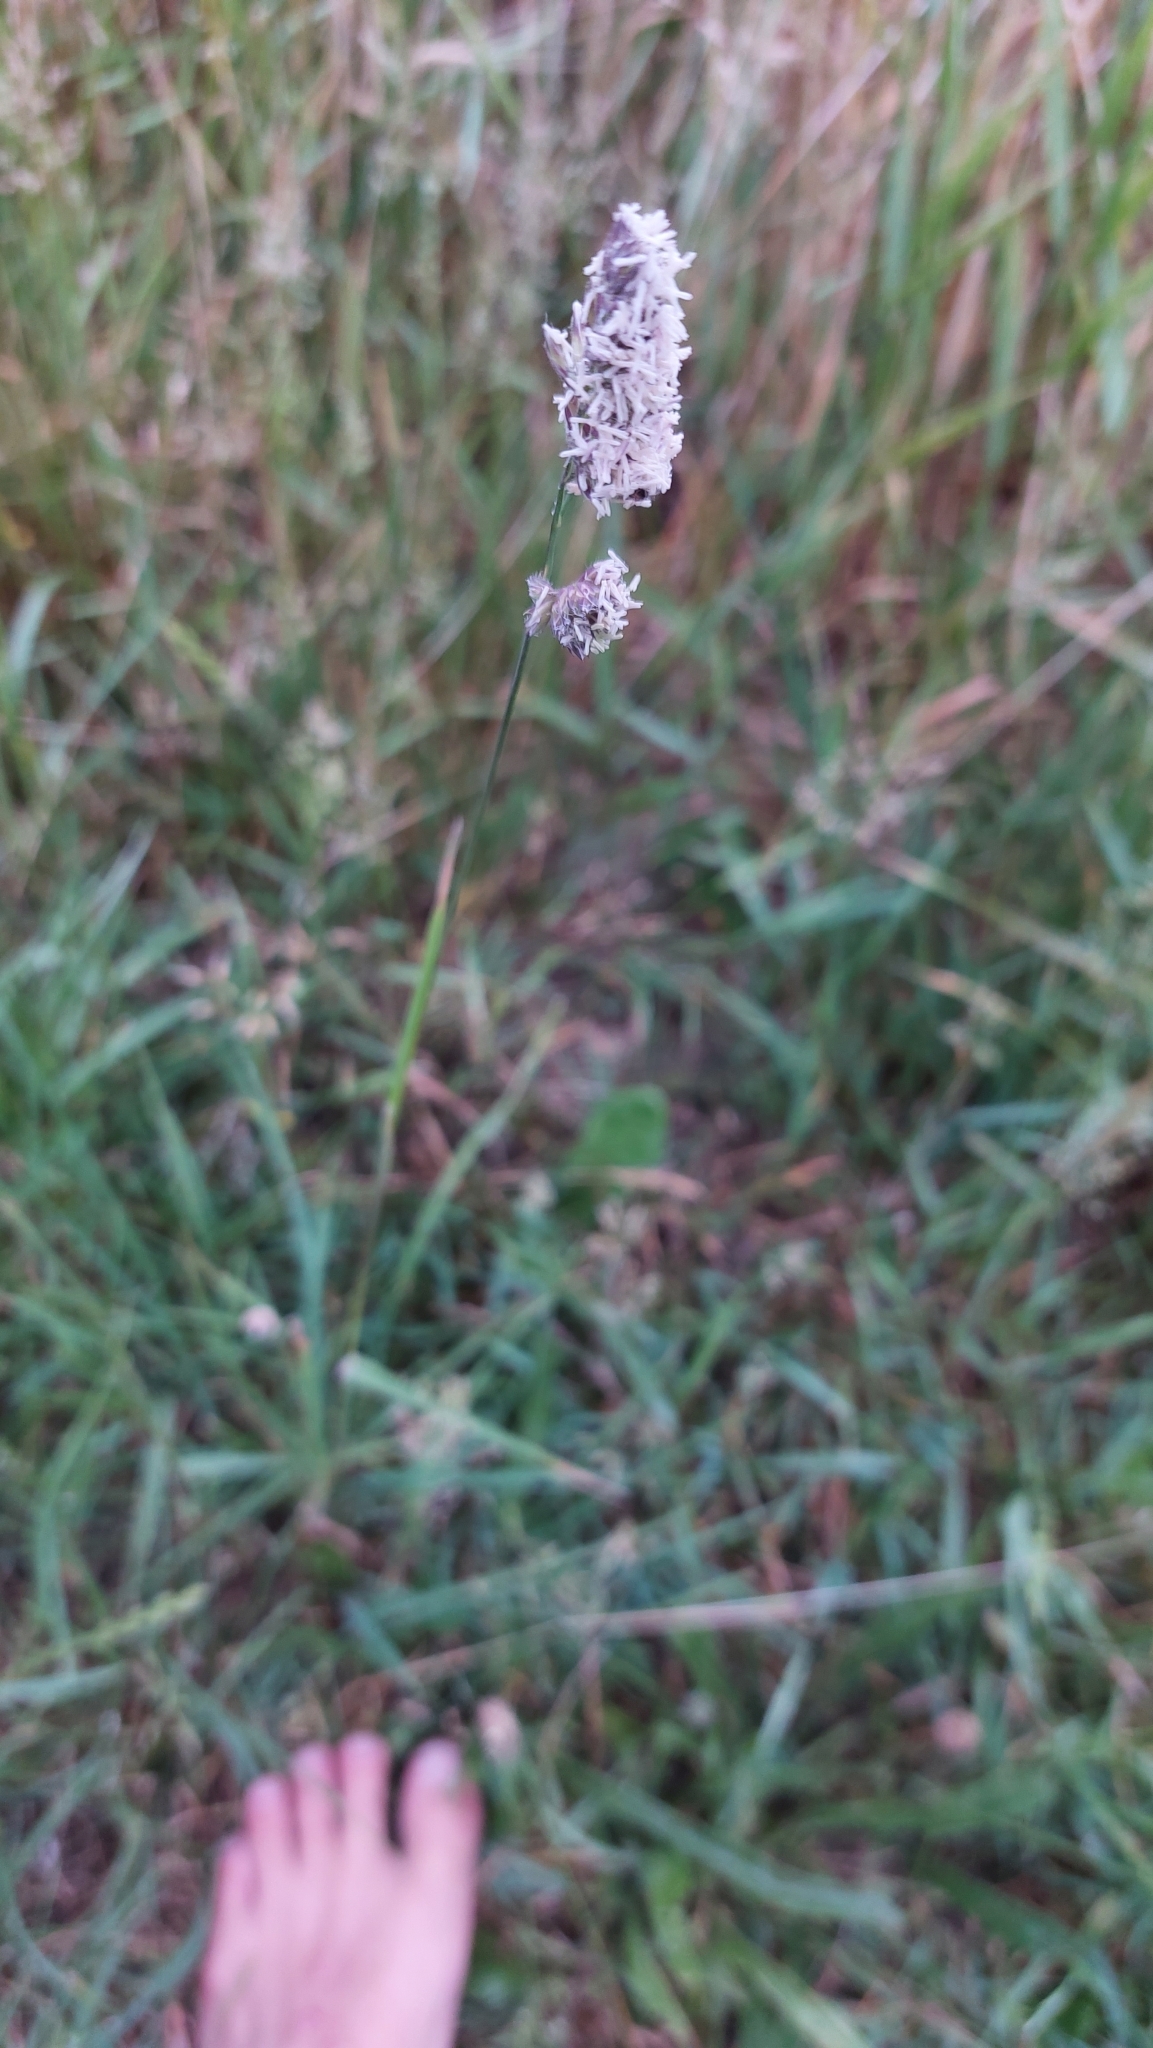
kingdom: Plantae
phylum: Tracheophyta
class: Liliopsida
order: Poales
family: Poaceae
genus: Dactylis
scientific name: Dactylis glomerata
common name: Orchardgrass
